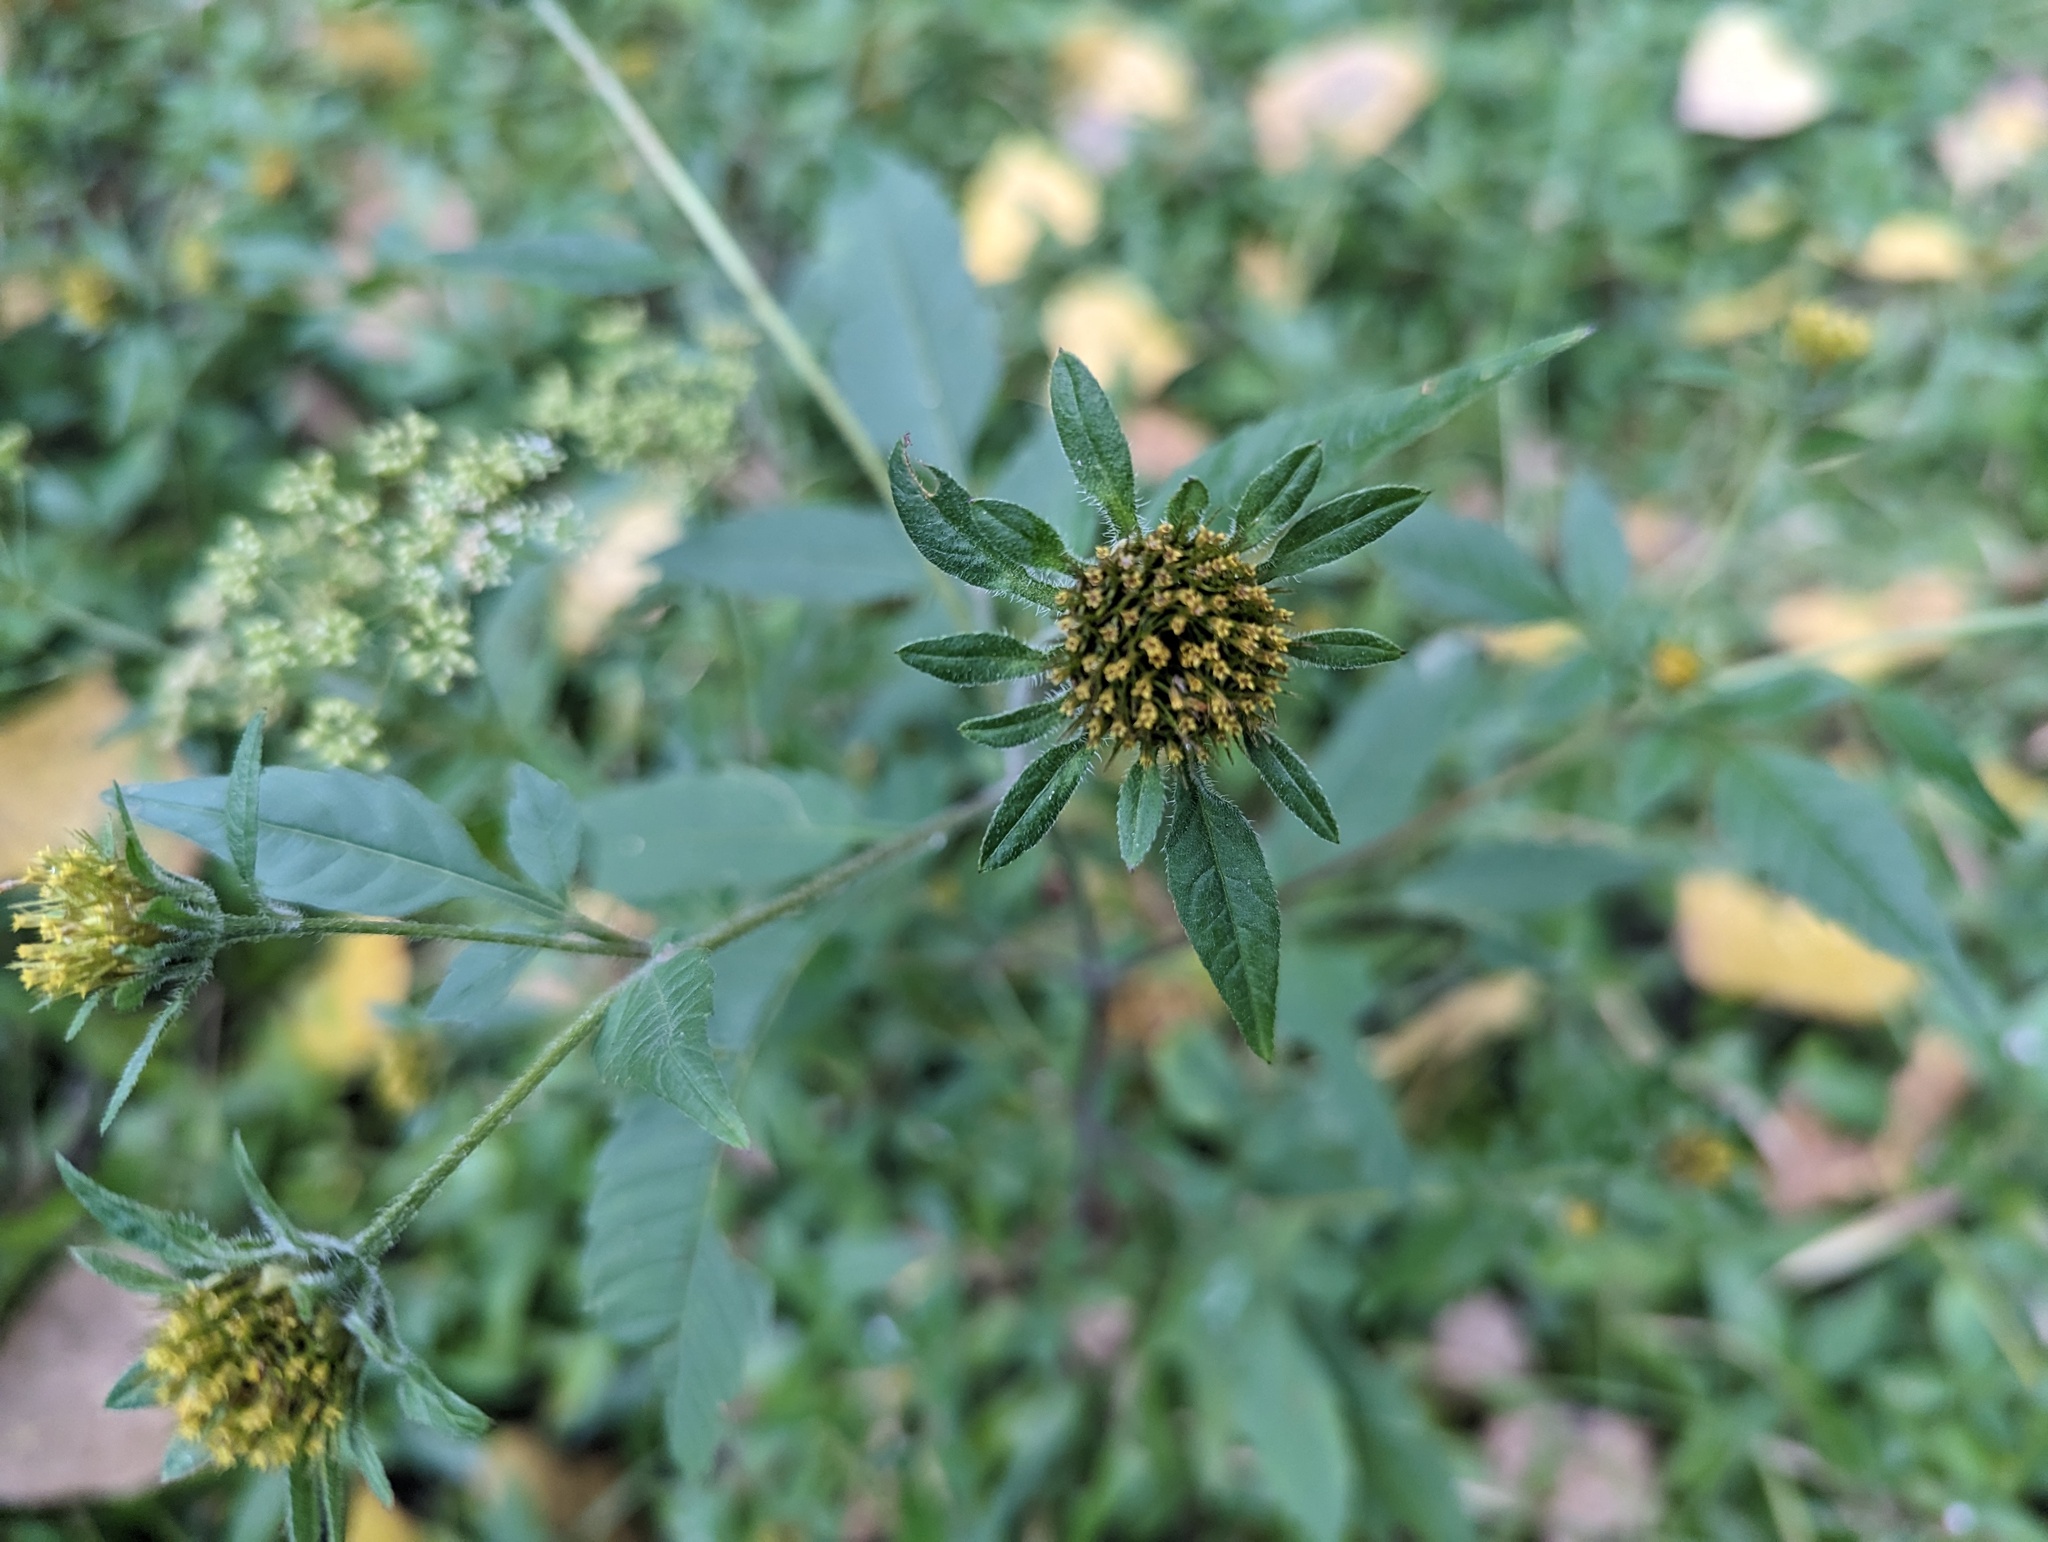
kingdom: Plantae
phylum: Tracheophyta
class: Magnoliopsida
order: Asterales
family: Asteraceae
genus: Bidens
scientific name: Bidens vulgata
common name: Tall beggarticks
